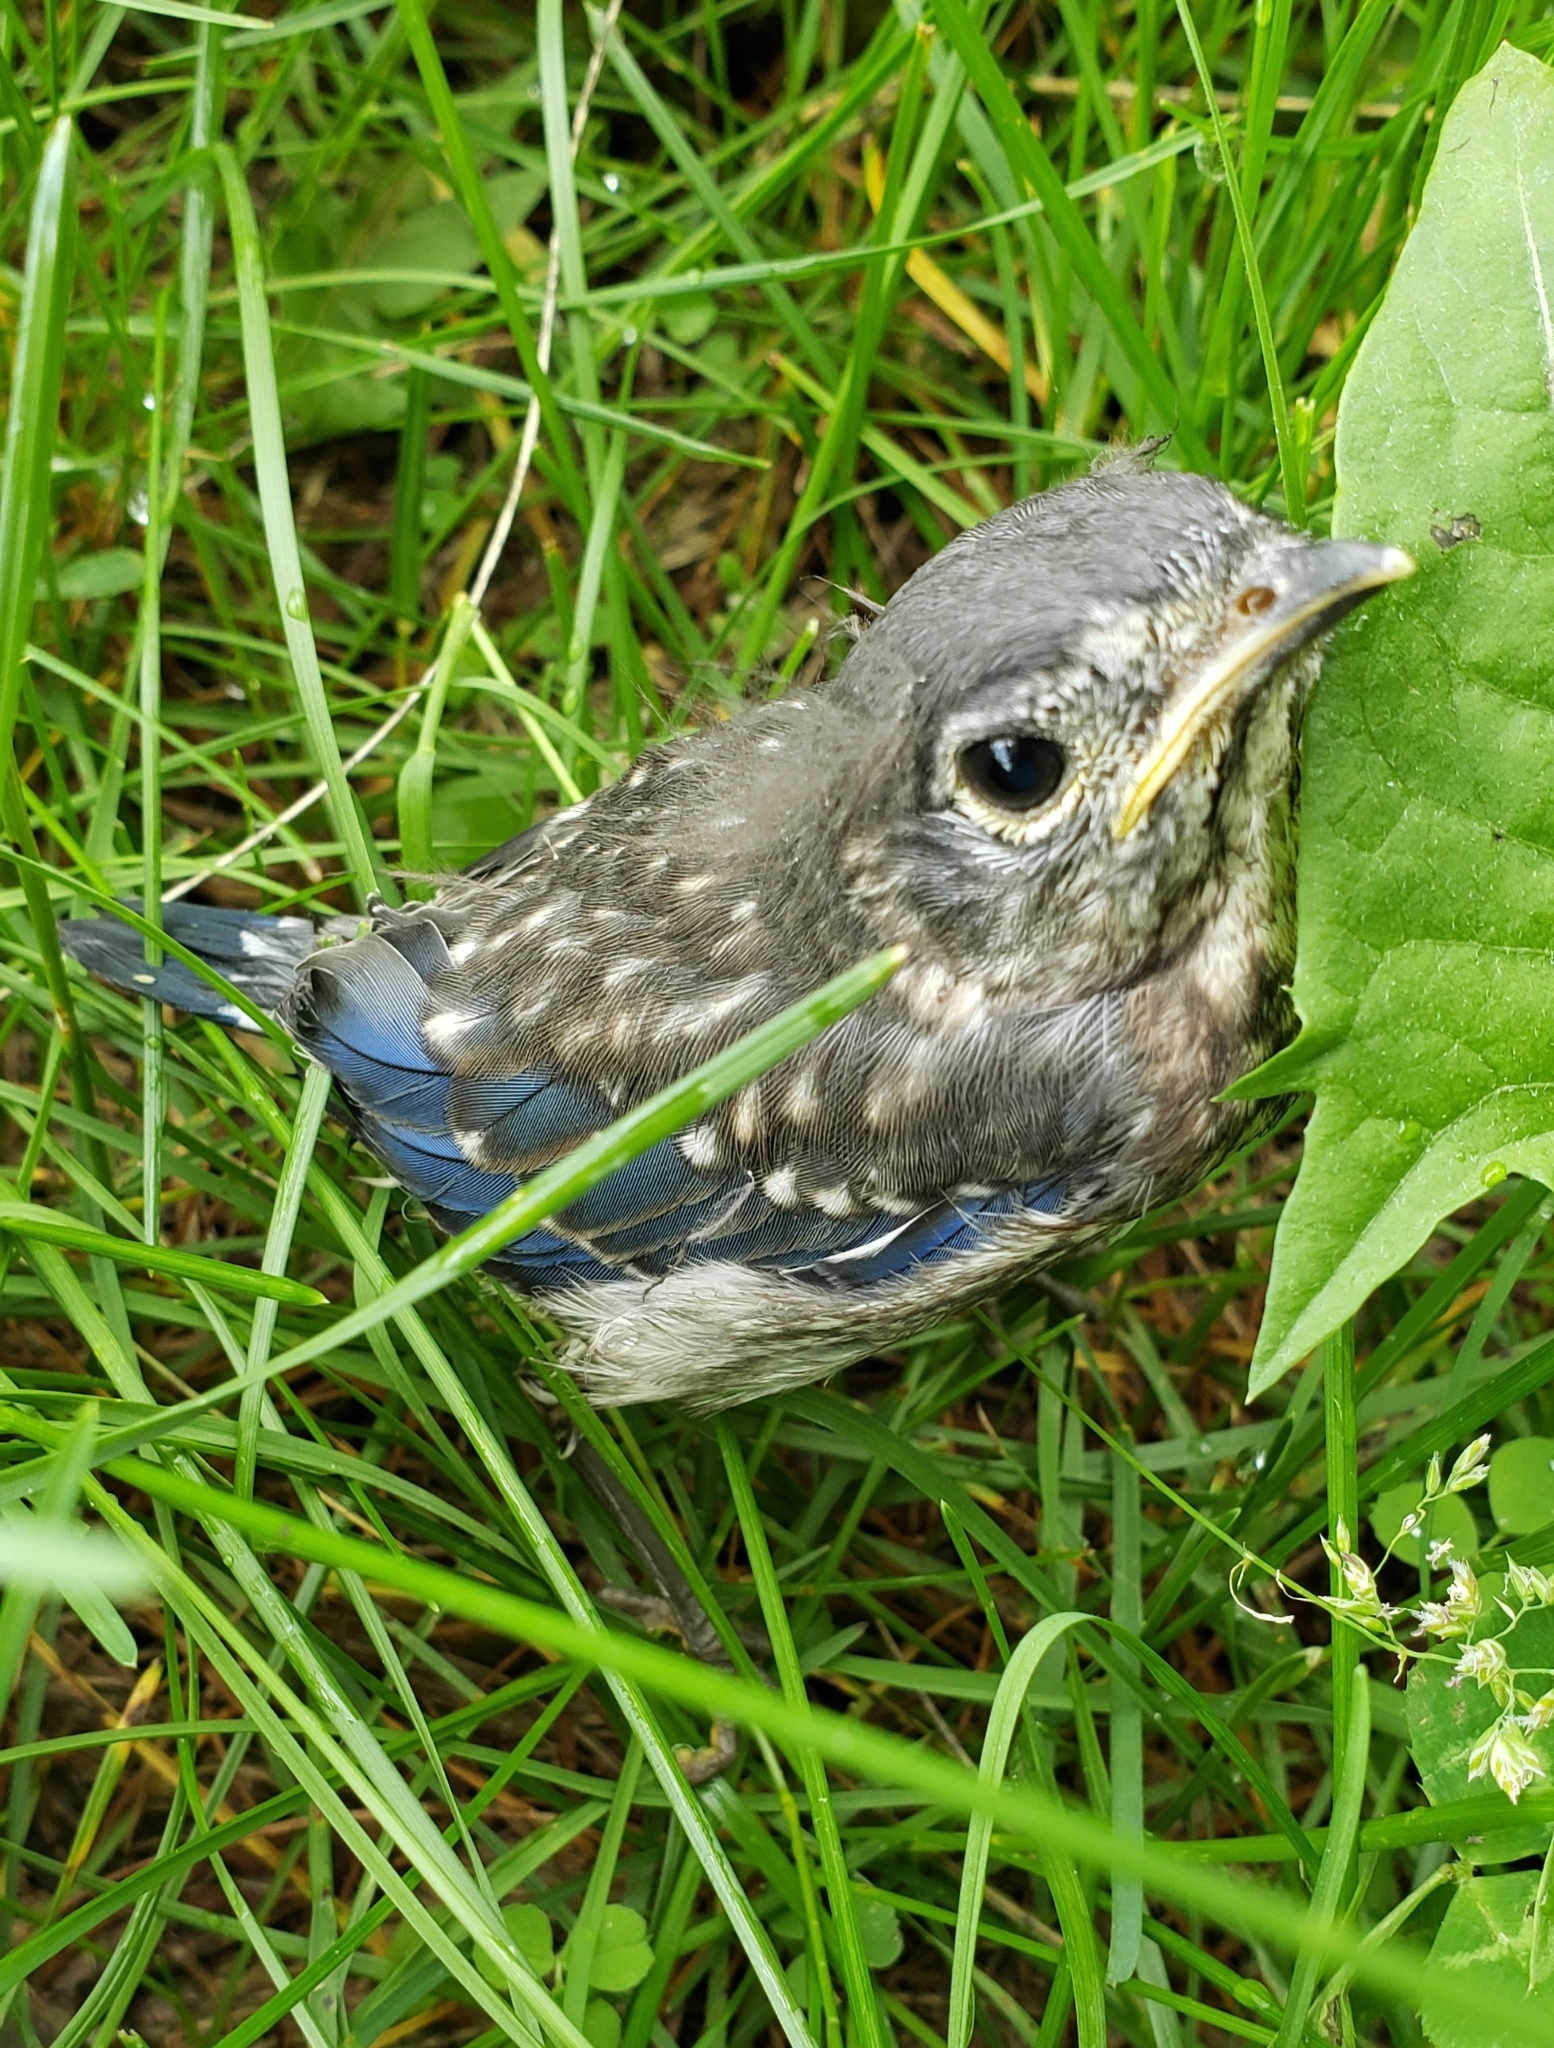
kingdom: Animalia
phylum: Chordata
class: Aves
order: Passeriformes
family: Turdidae
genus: Sialia
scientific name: Sialia sialis
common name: Eastern bluebird
